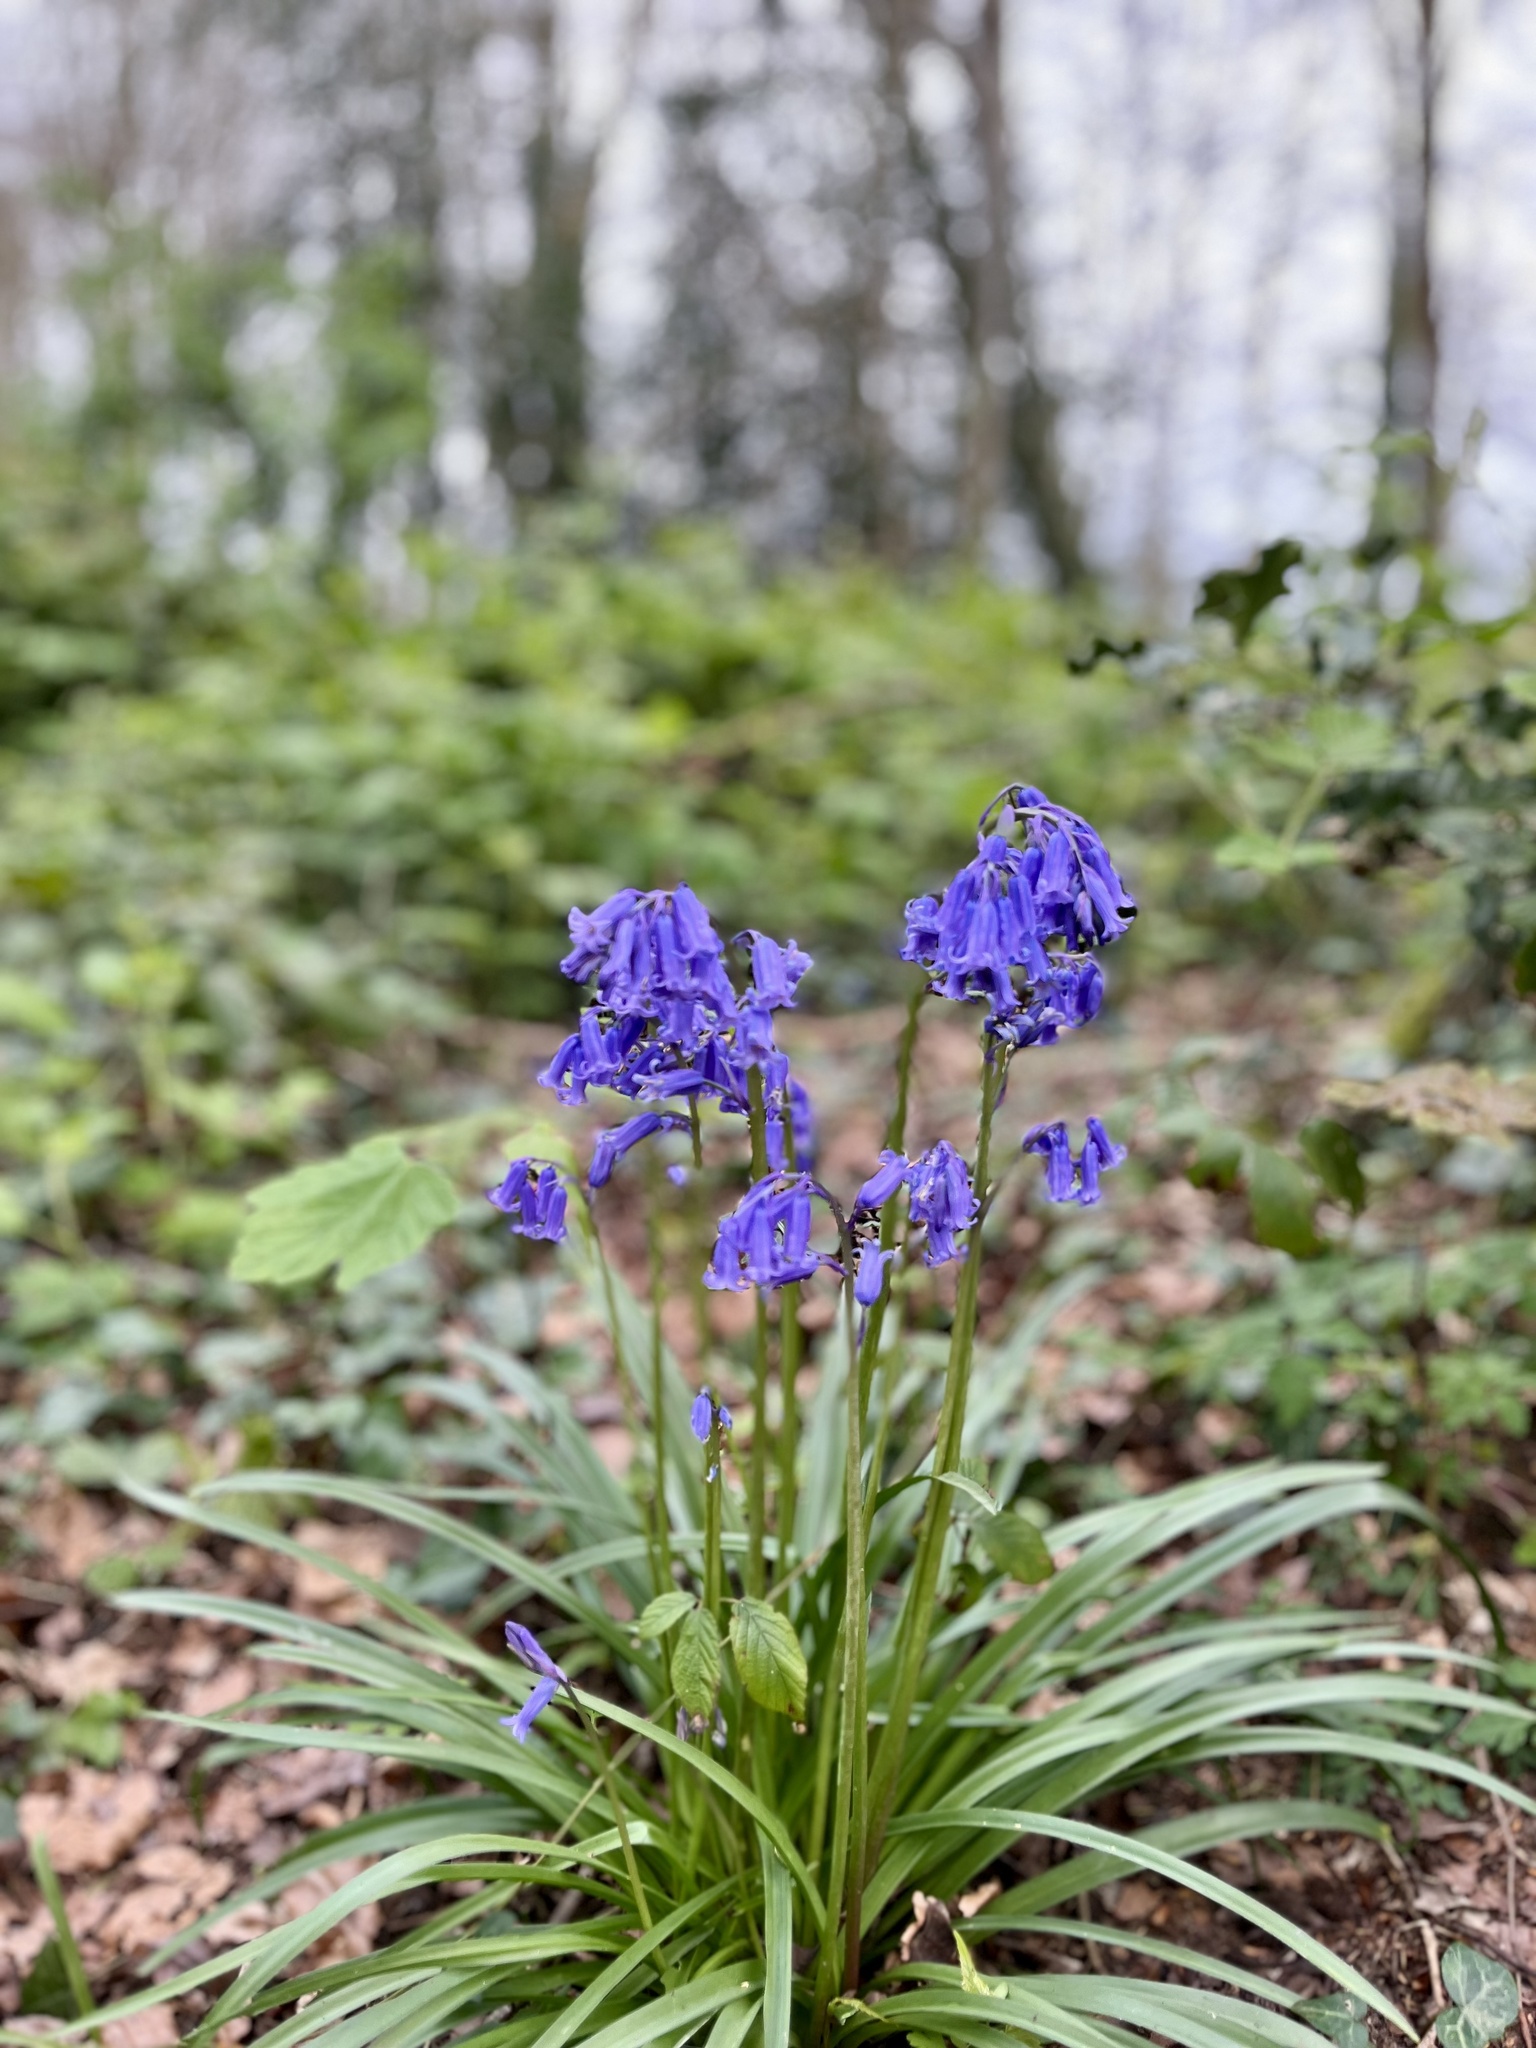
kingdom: Plantae
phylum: Tracheophyta
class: Liliopsida
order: Asparagales
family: Asparagaceae
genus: Hyacinthoides
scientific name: Hyacinthoides non-scripta
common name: Bluebell
